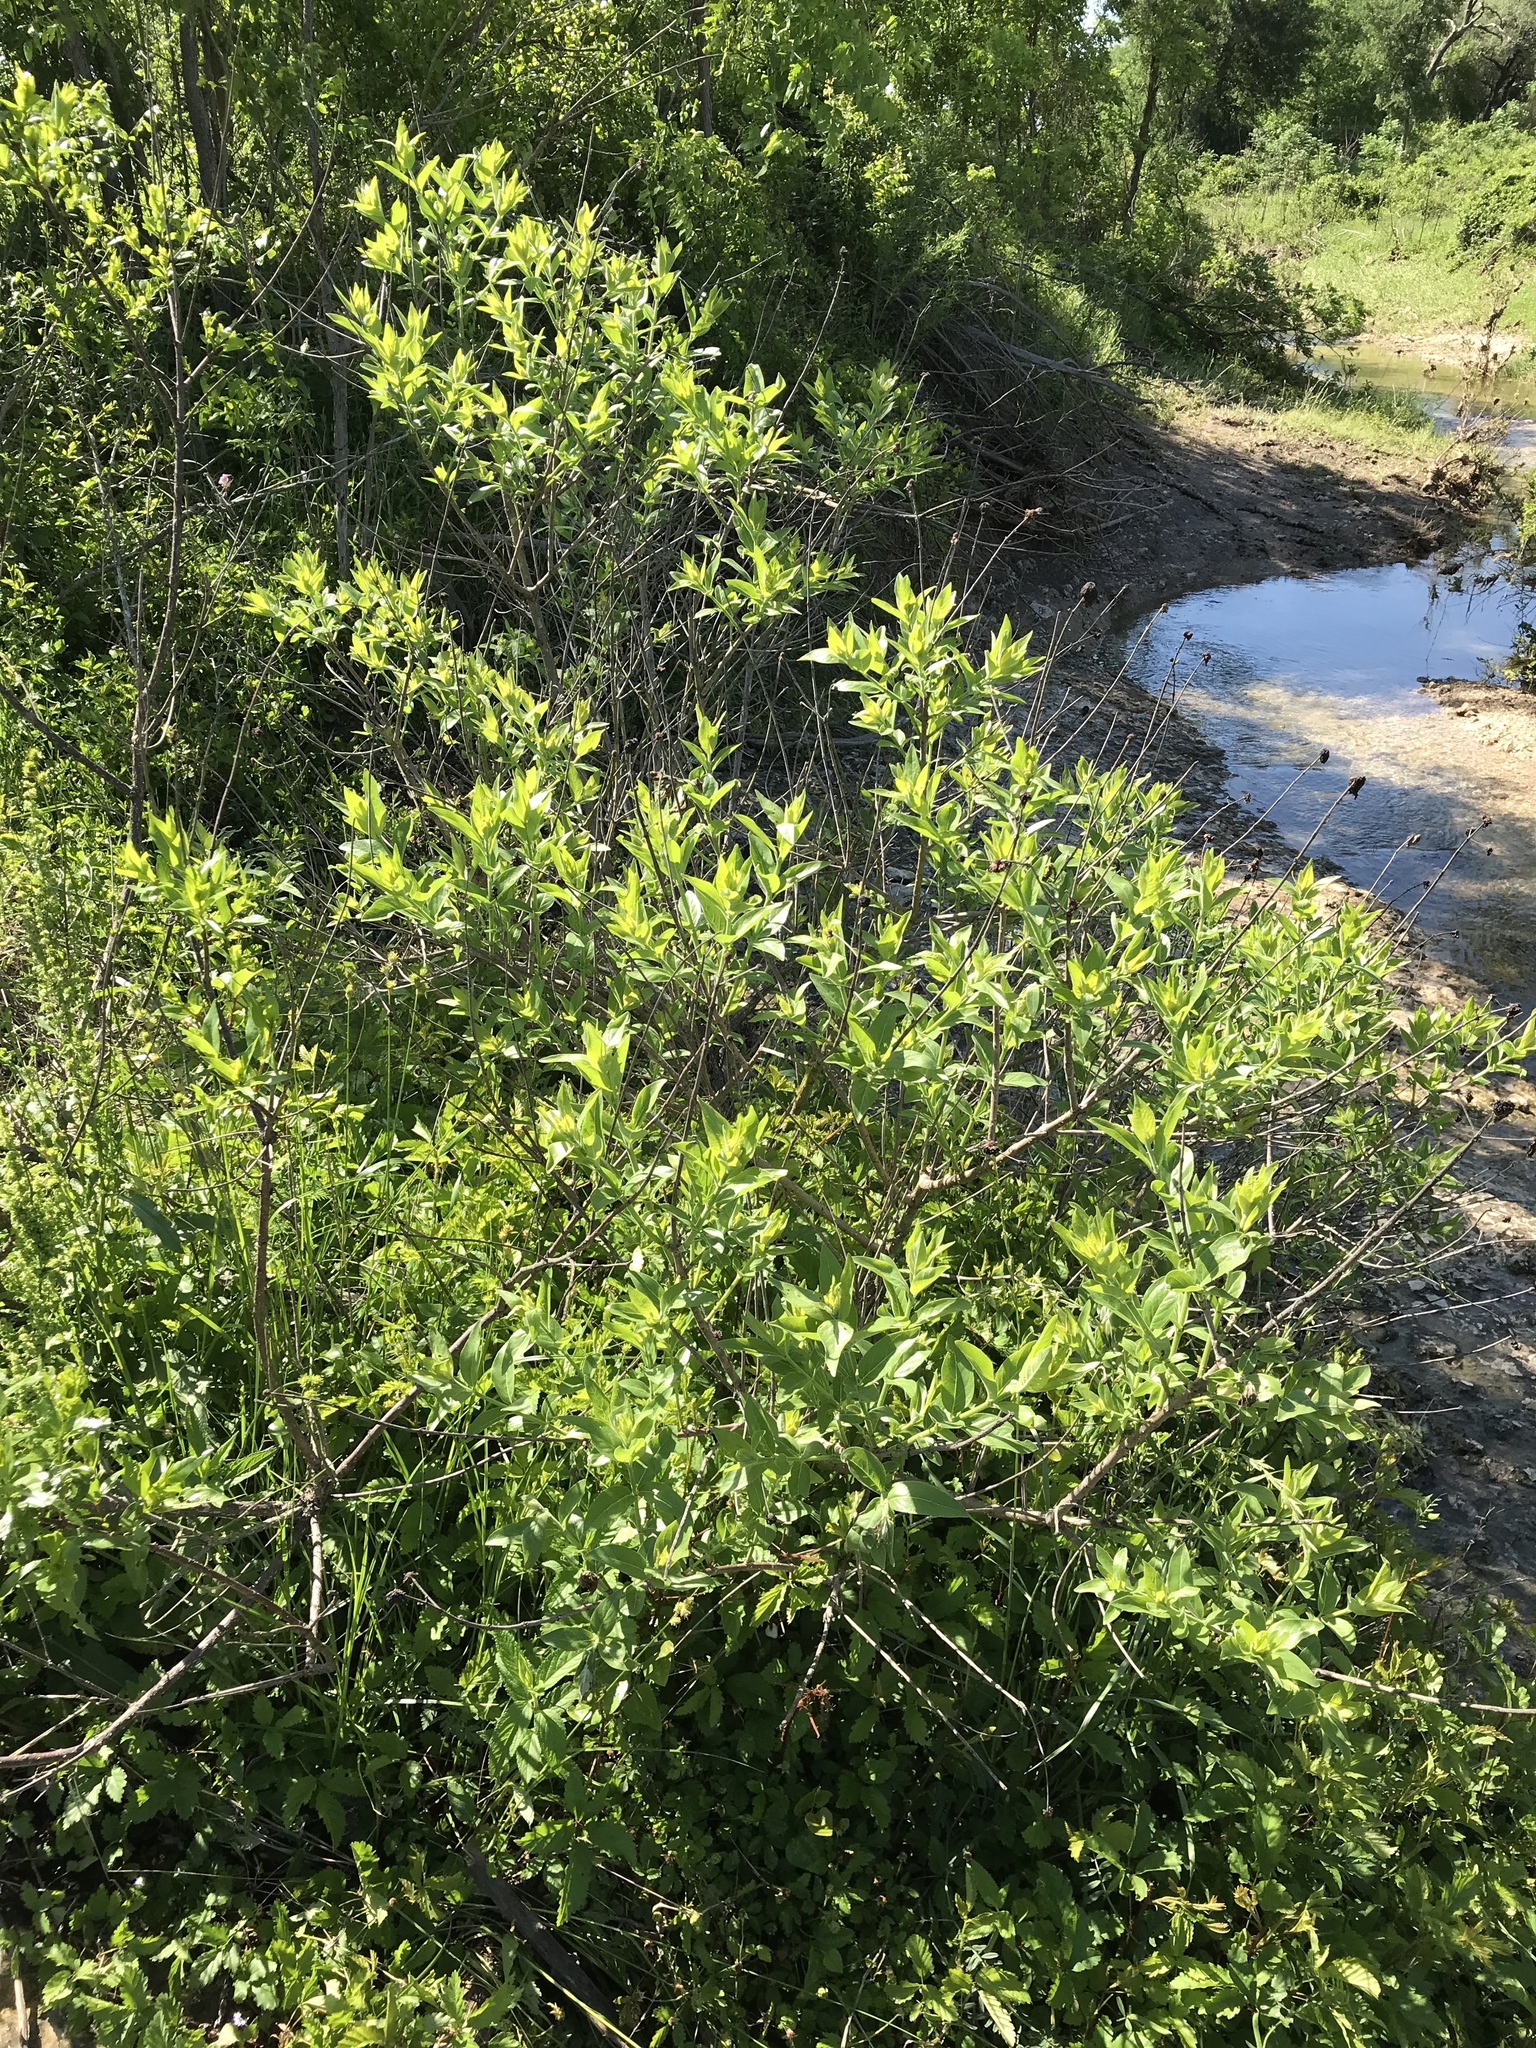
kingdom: Plantae
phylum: Tracheophyta
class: Magnoliopsida
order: Gentianales
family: Rubiaceae
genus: Cephalanthus
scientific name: Cephalanthus occidentalis
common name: Button-willow
